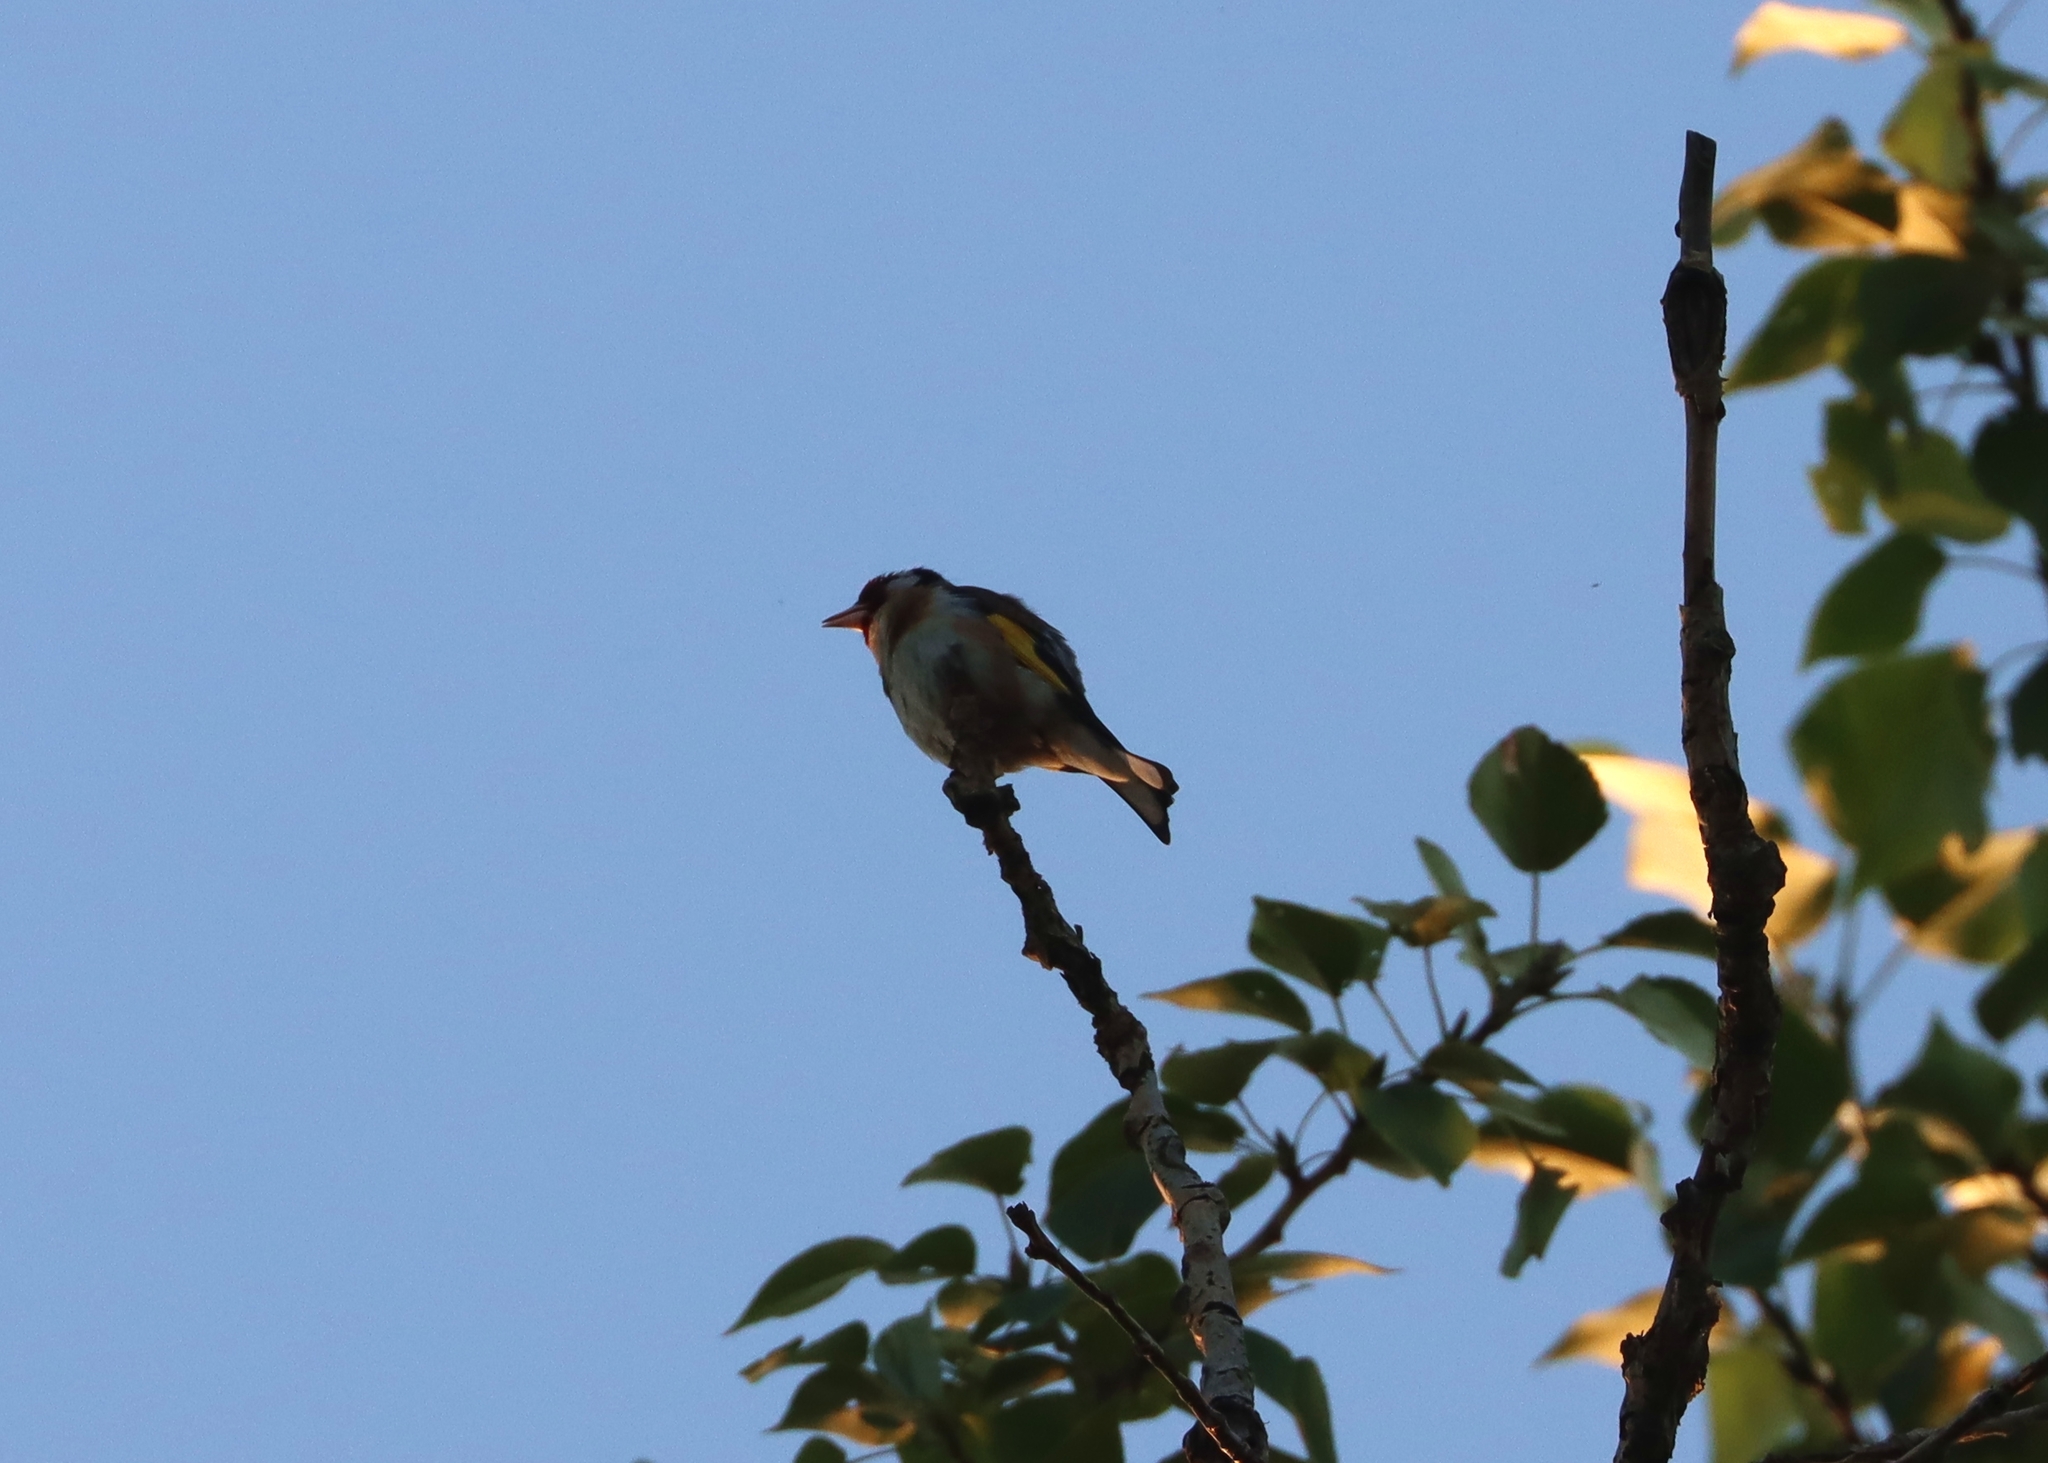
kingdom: Animalia
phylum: Chordata
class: Aves
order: Passeriformes
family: Fringillidae
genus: Carduelis
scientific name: Carduelis carduelis
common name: European goldfinch
